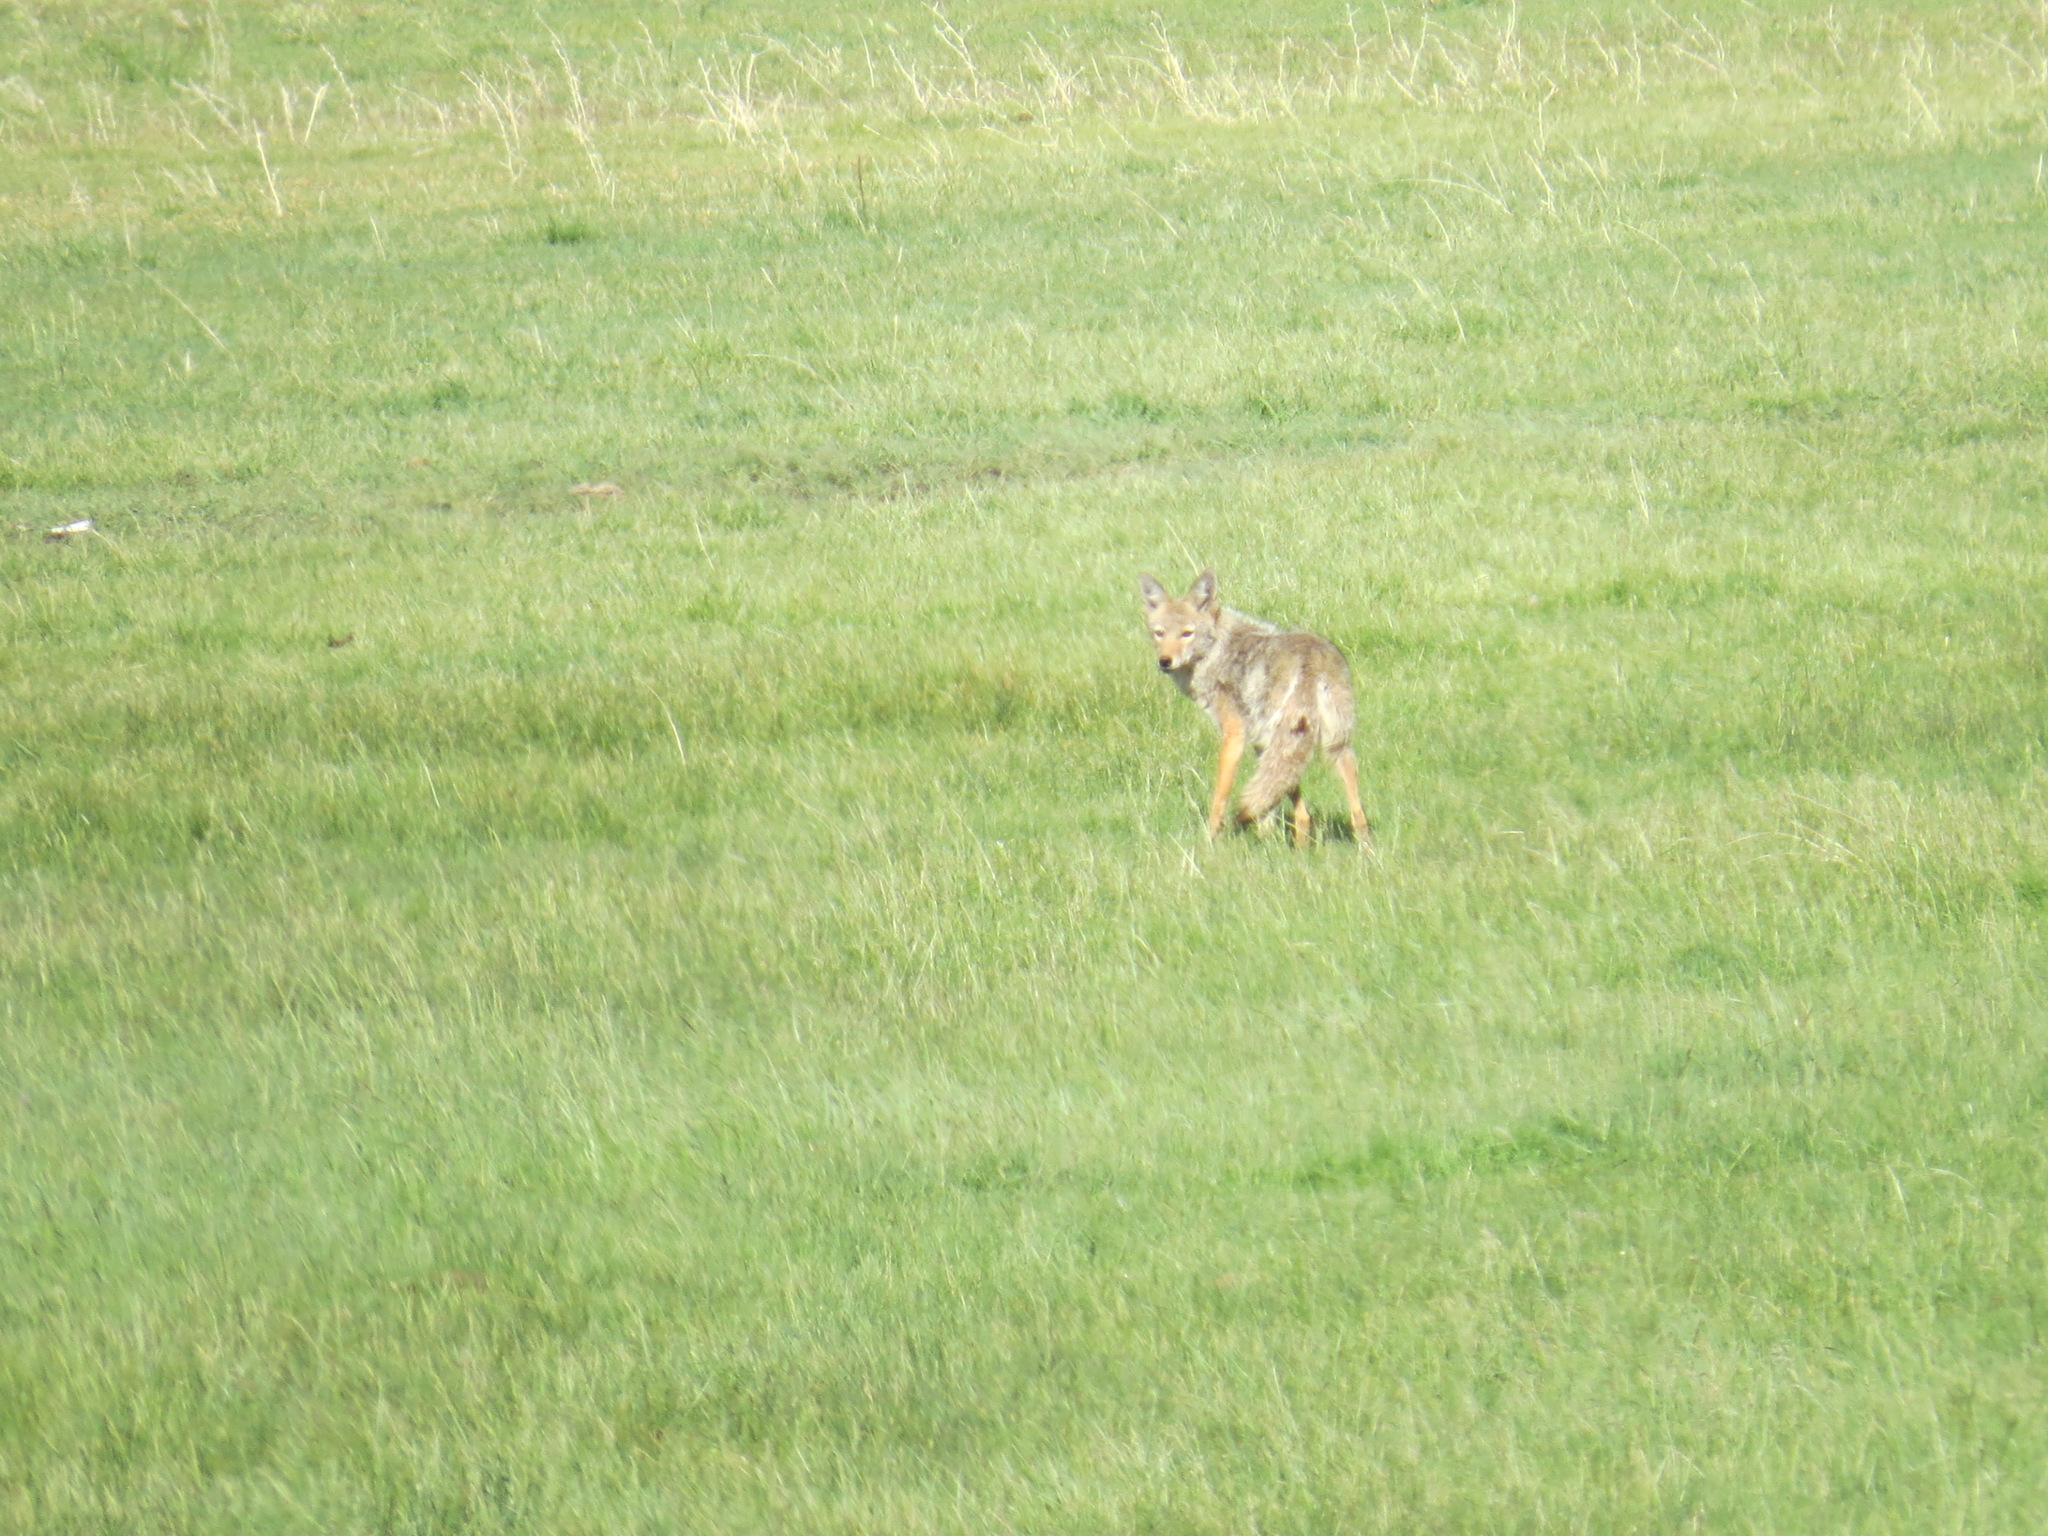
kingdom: Animalia
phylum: Chordata
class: Mammalia
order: Carnivora
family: Canidae
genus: Canis
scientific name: Canis latrans
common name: Coyote
